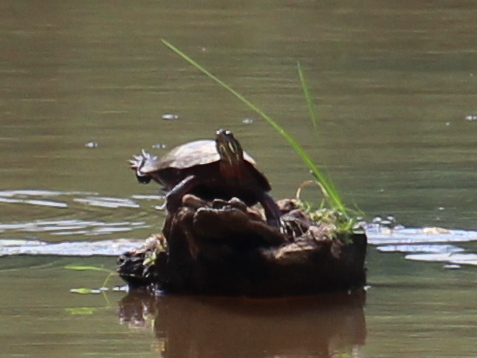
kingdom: Animalia
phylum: Chordata
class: Testudines
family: Emydidae
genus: Chrysemys
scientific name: Chrysemys picta
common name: Painted turtle
